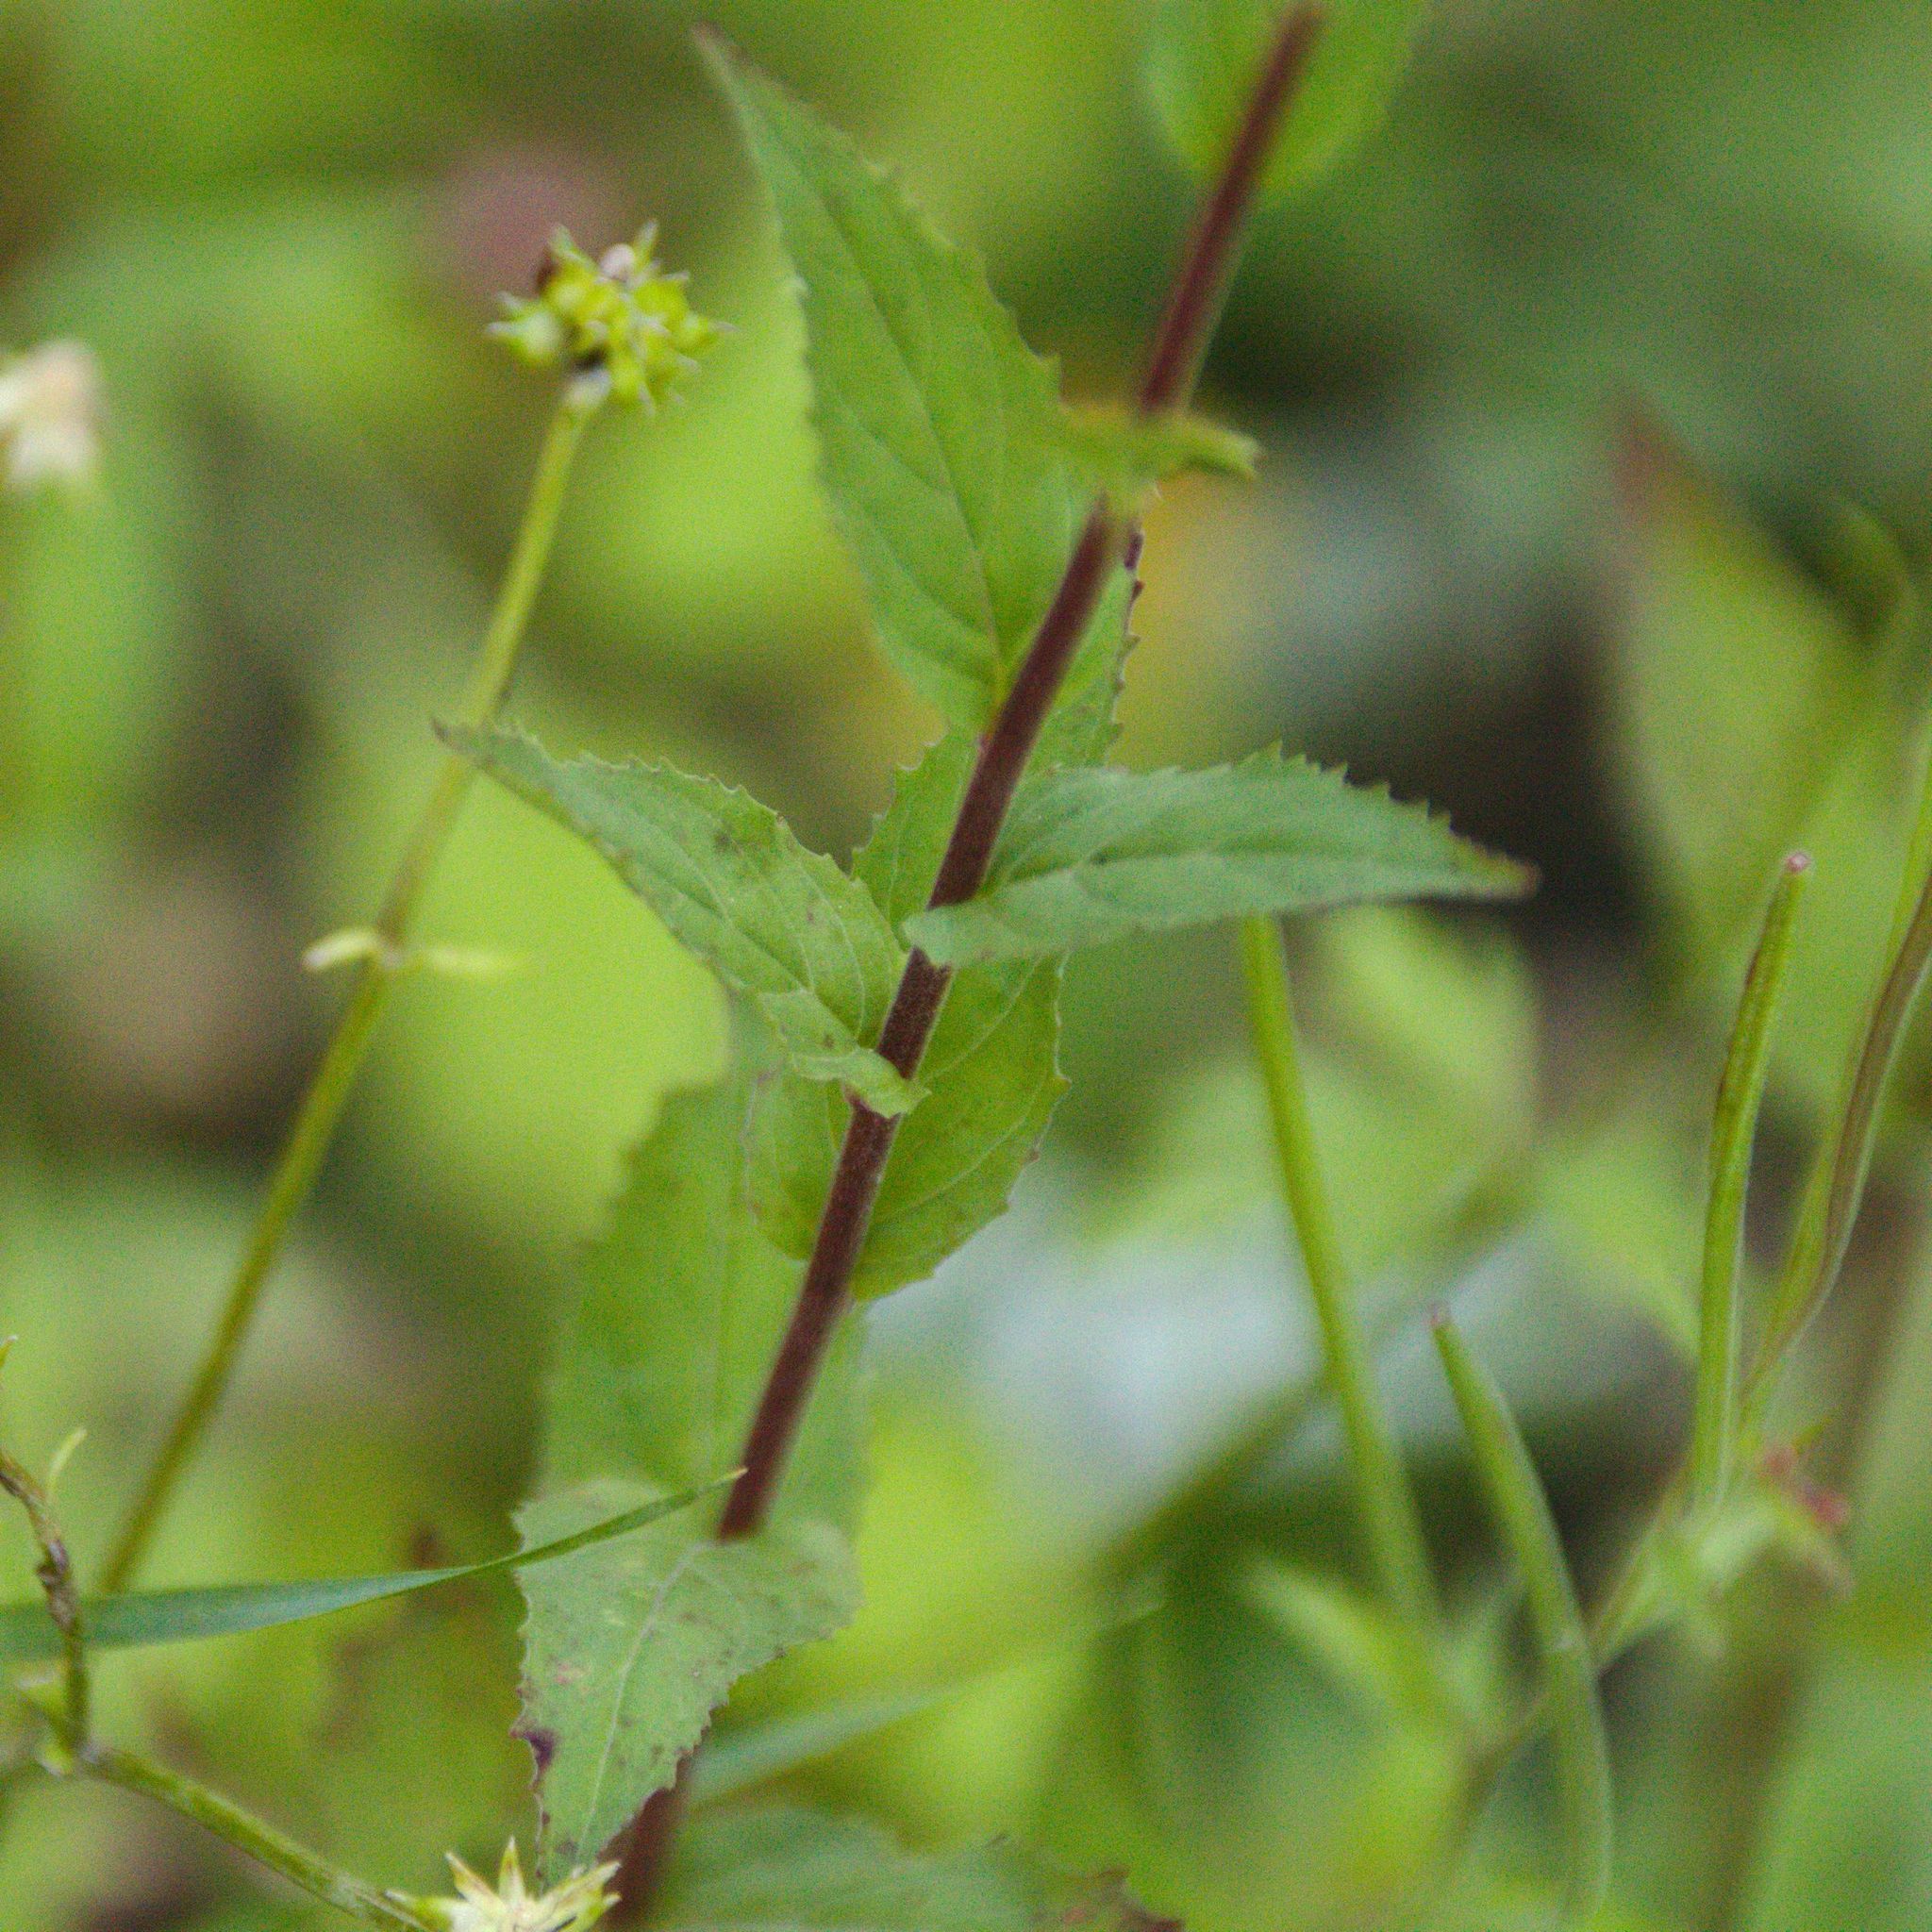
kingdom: Plantae
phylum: Tracheophyta
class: Magnoliopsida
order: Myrtales
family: Onagraceae
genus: Epilobium
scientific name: Epilobium montanum
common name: Broad-leaved willowherb
